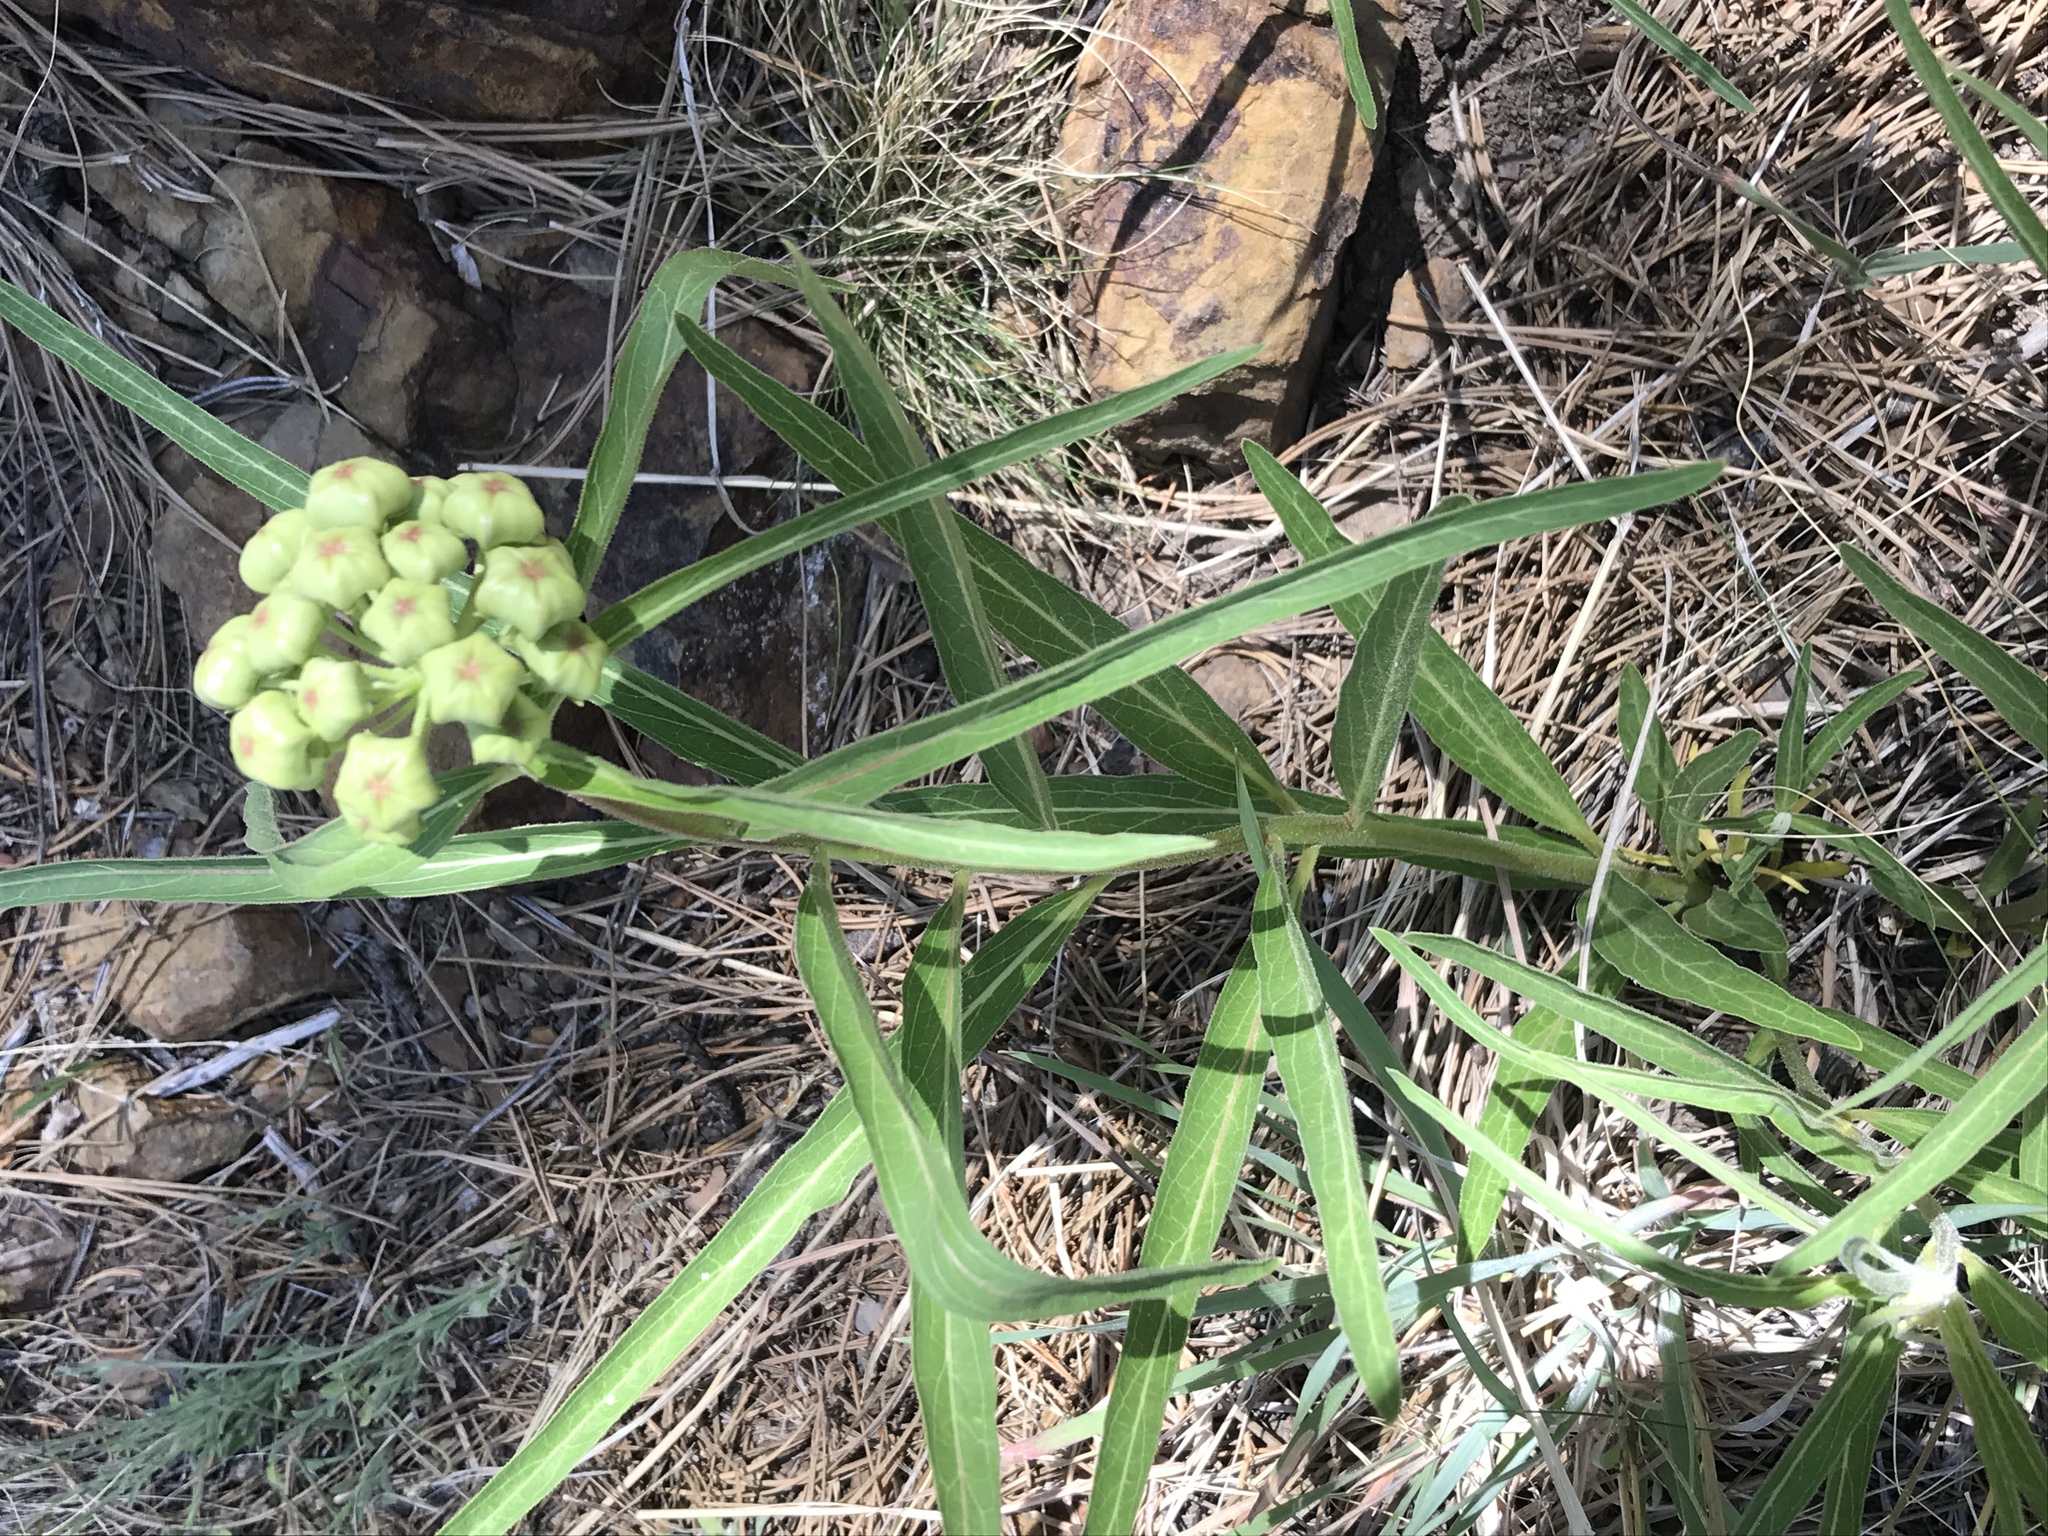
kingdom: Plantae
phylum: Tracheophyta
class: Magnoliopsida
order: Gentianales
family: Apocynaceae
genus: Asclepias
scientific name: Asclepias asperula
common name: Antelope horns
